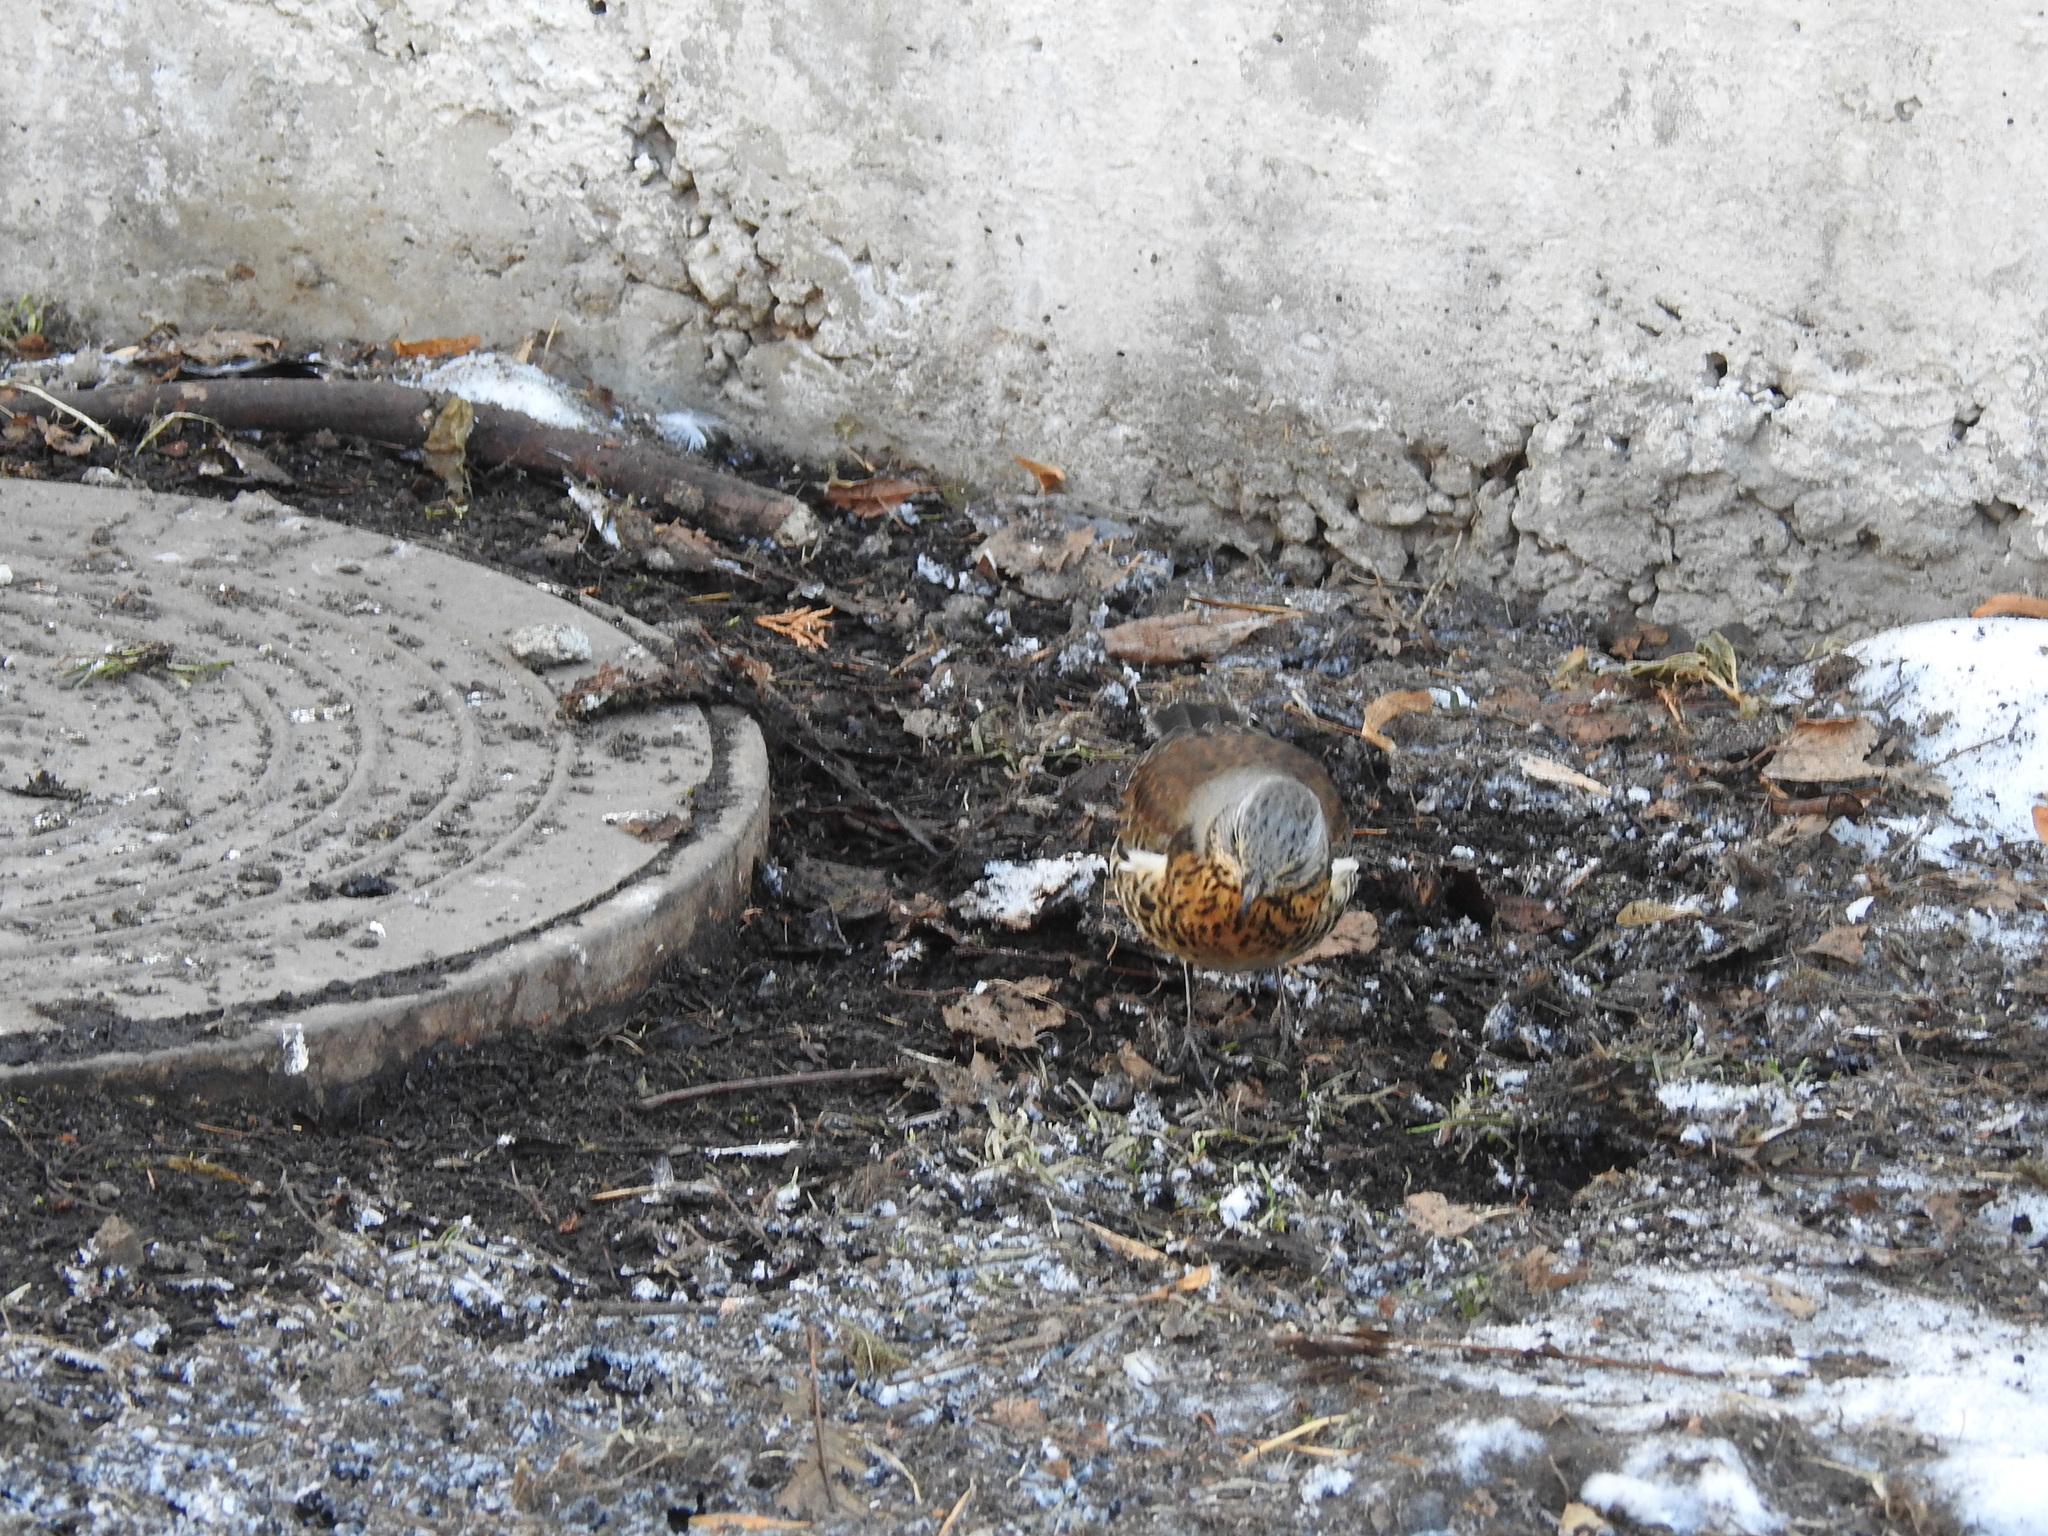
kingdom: Animalia
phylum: Chordata
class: Aves
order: Passeriformes
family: Turdidae
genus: Turdus
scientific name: Turdus pilaris
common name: Fieldfare
